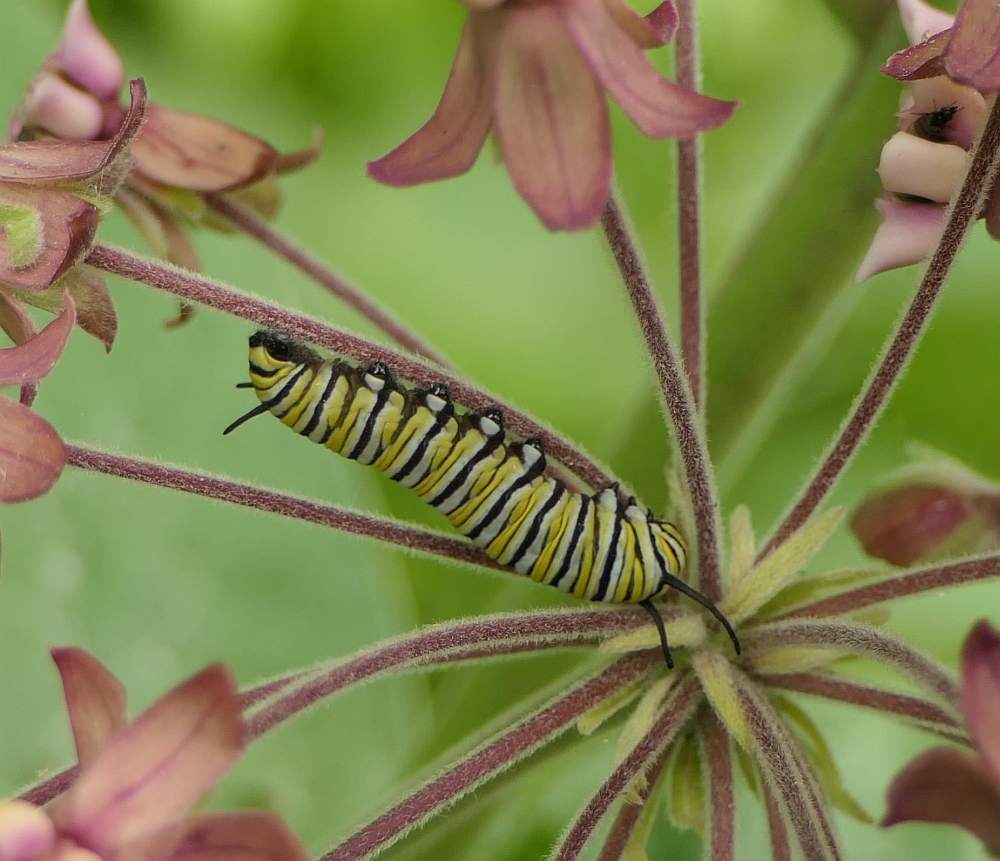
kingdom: Animalia
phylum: Arthropoda
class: Insecta
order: Lepidoptera
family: Nymphalidae
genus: Danaus
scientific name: Danaus plexippus
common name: Monarch
